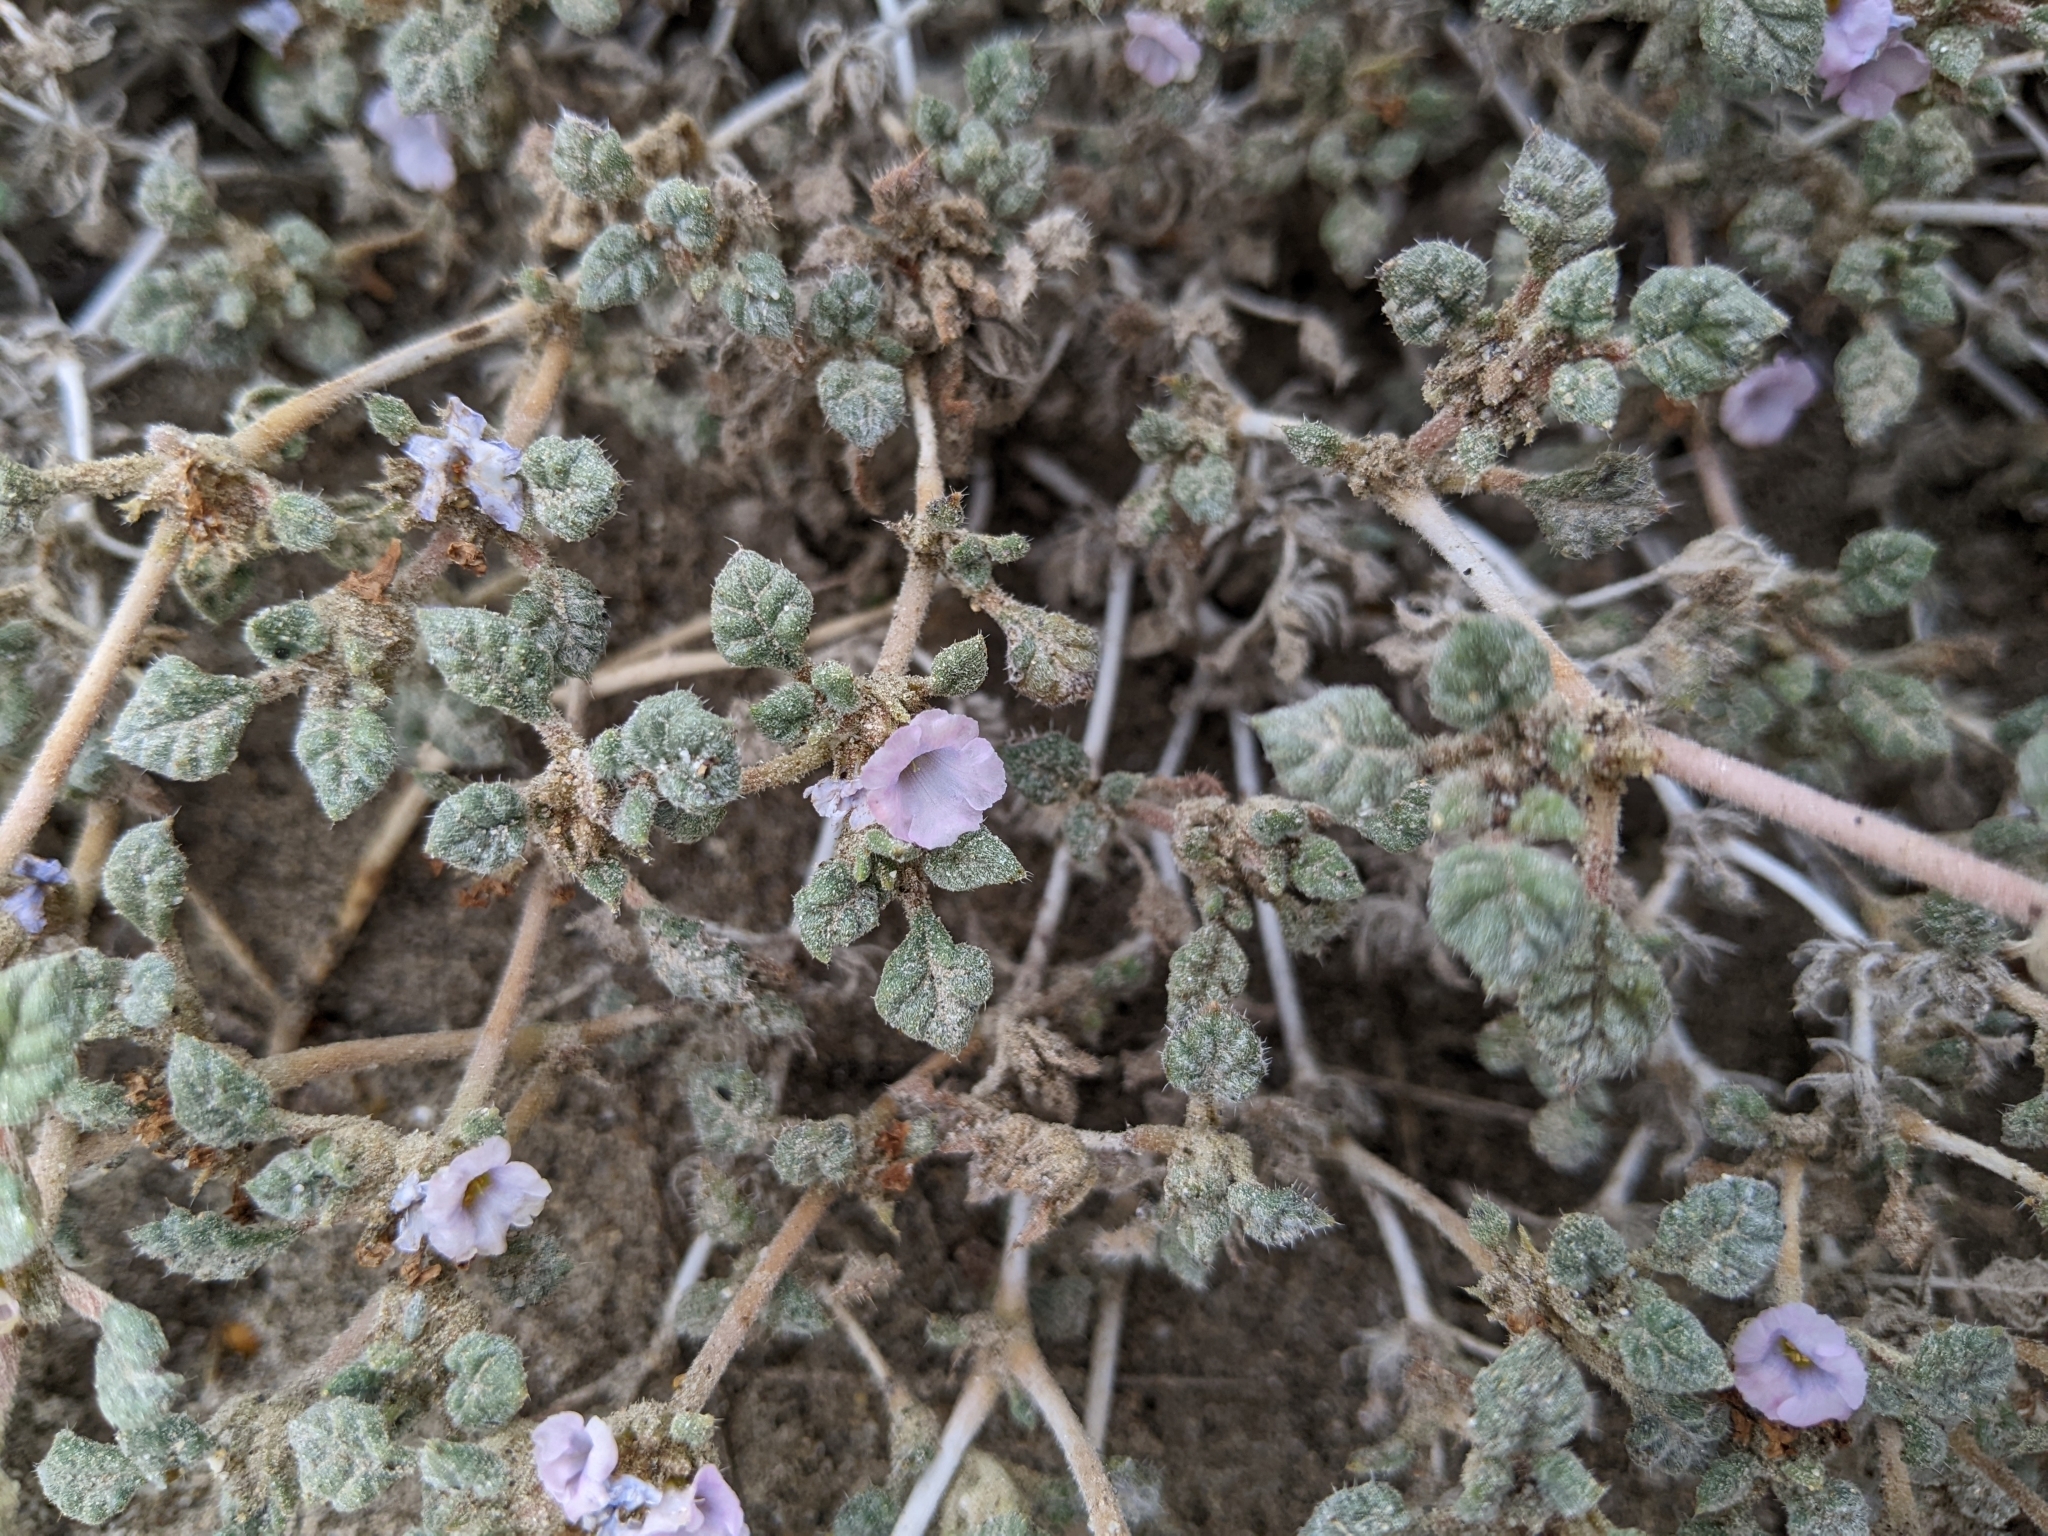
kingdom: Plantae
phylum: Tracheophyta
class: Magnoliopsida
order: Boraginales
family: Ehretiaceae
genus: Tiquilia
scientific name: Tiquilia palmeri
